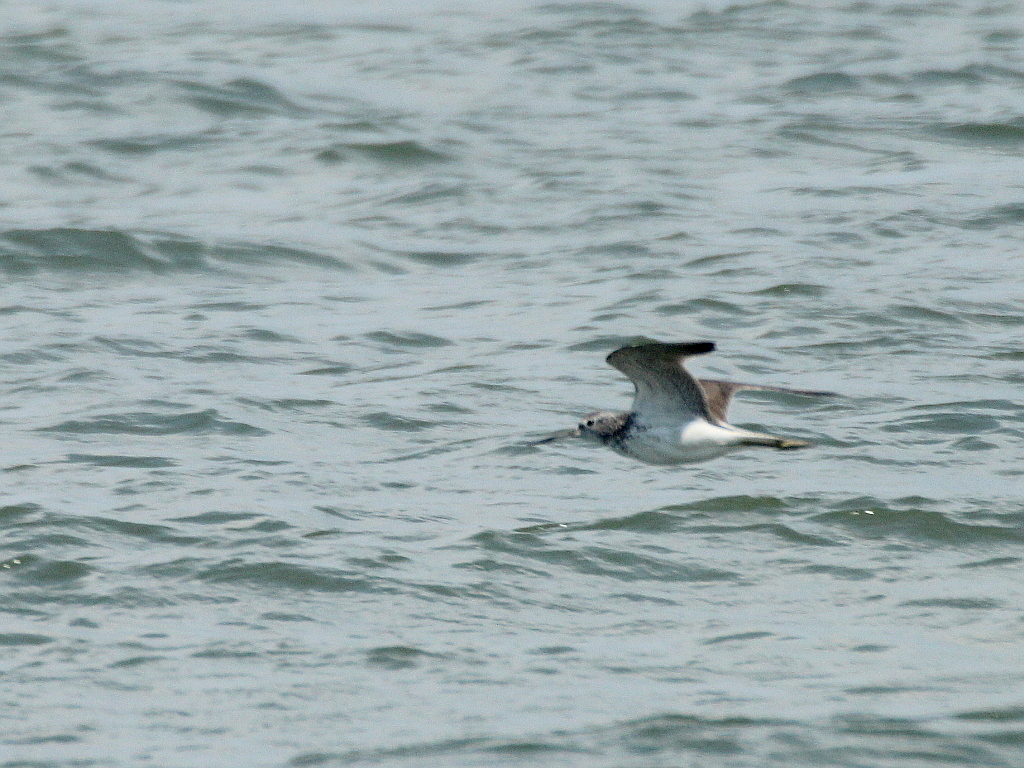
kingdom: Animalia
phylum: Chordata
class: Aves
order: Charadriiformes
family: Scolopacidae
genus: Tringa
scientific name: Tringa nebularia
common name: Common greenshank
